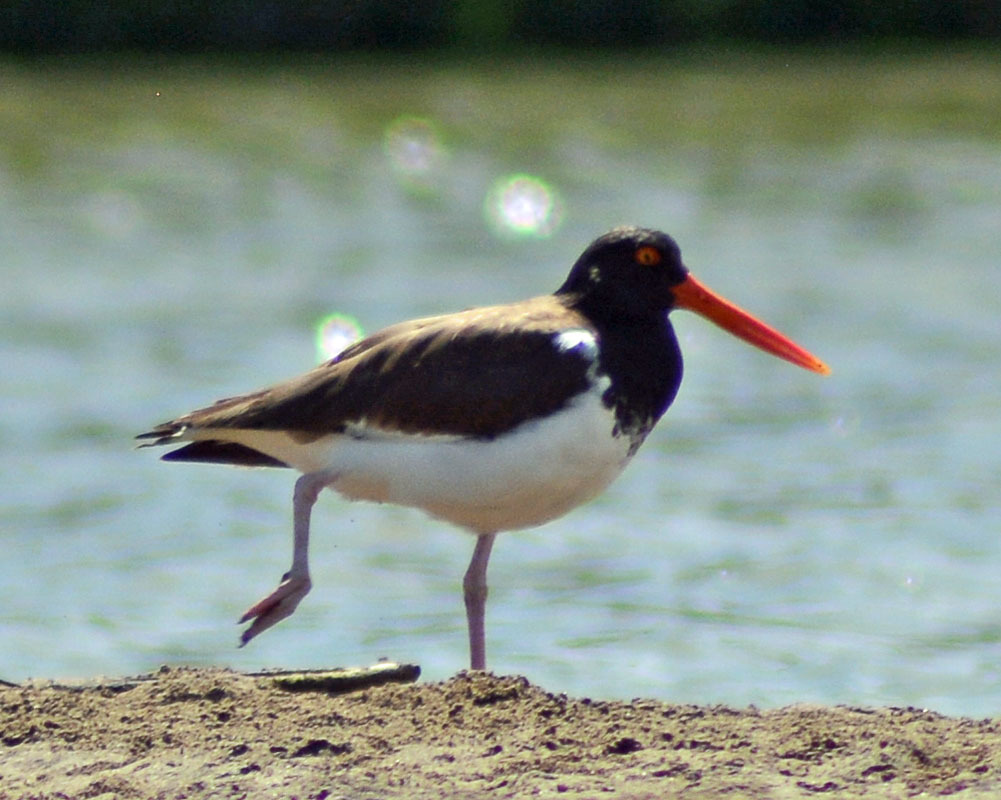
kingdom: Animalia
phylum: Chordata
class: Aves
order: Charadriiformes
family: Haematopodidae
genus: Haematopus
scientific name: Haematopus palliatus
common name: American oystercatcher
